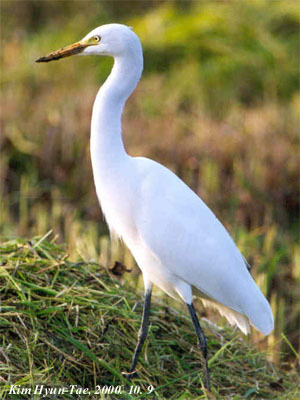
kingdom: Animalia
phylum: Chordata
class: Aves
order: Pelecaniformes
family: Ardeidae
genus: Egretta
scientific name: Egretta intermedia
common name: Intermediate egret
